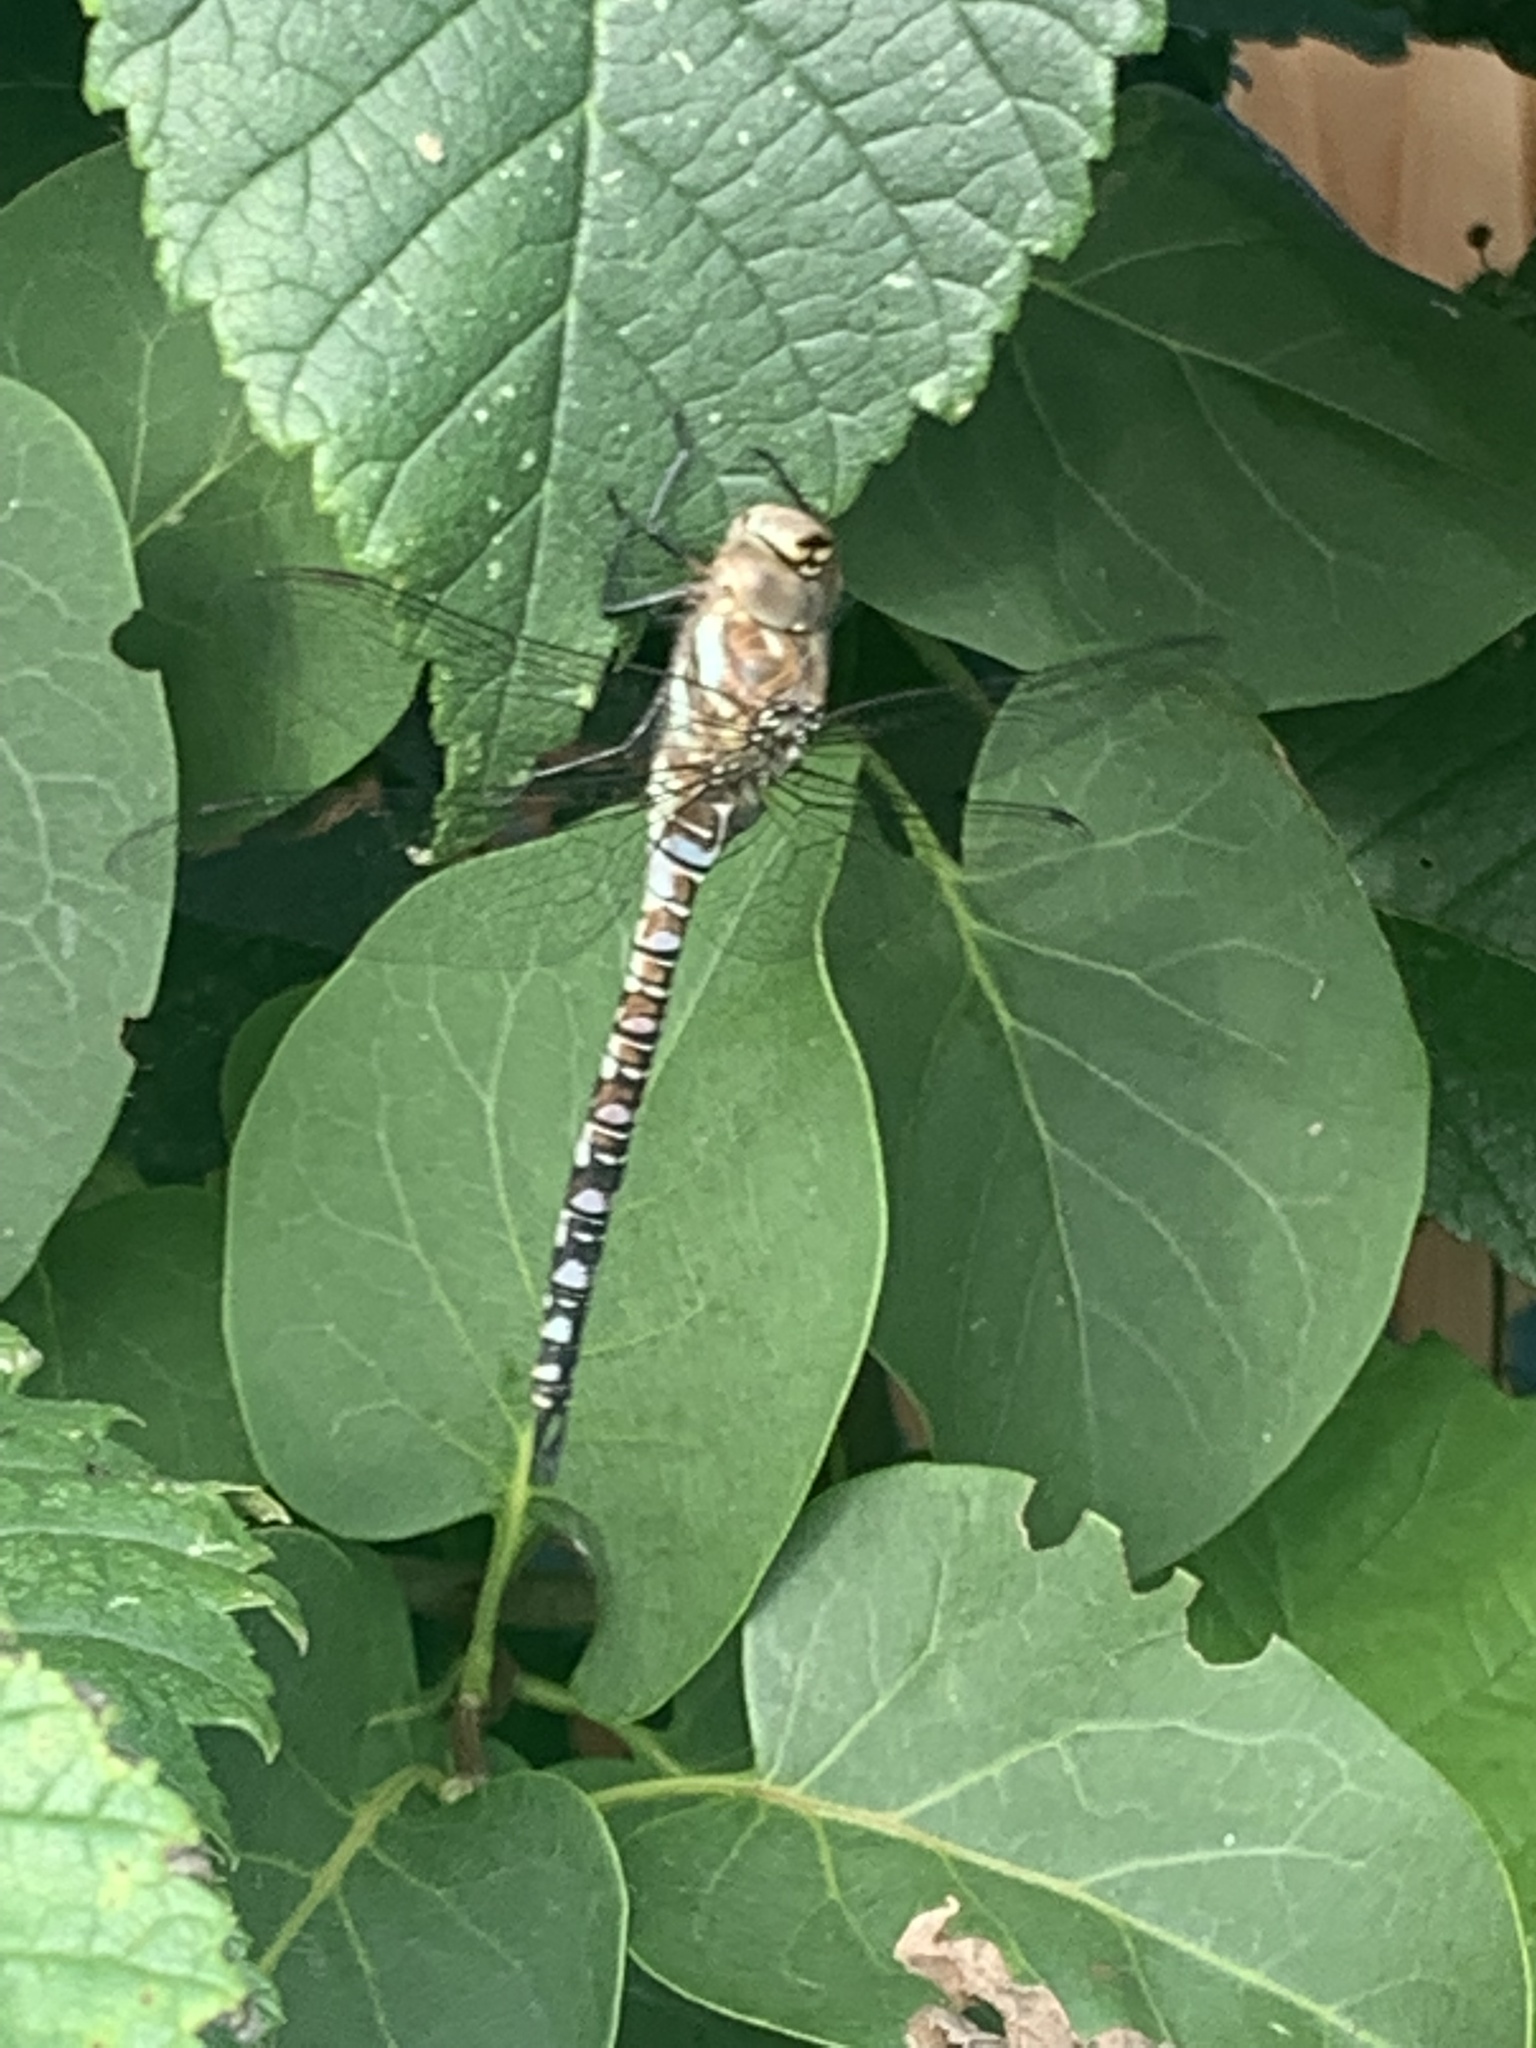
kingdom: Animalia
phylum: Arthropoda
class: Insecta
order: Odonata
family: Aeshnidae
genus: Aeshna
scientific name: Aeshna mixta
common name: Migrant hawker
